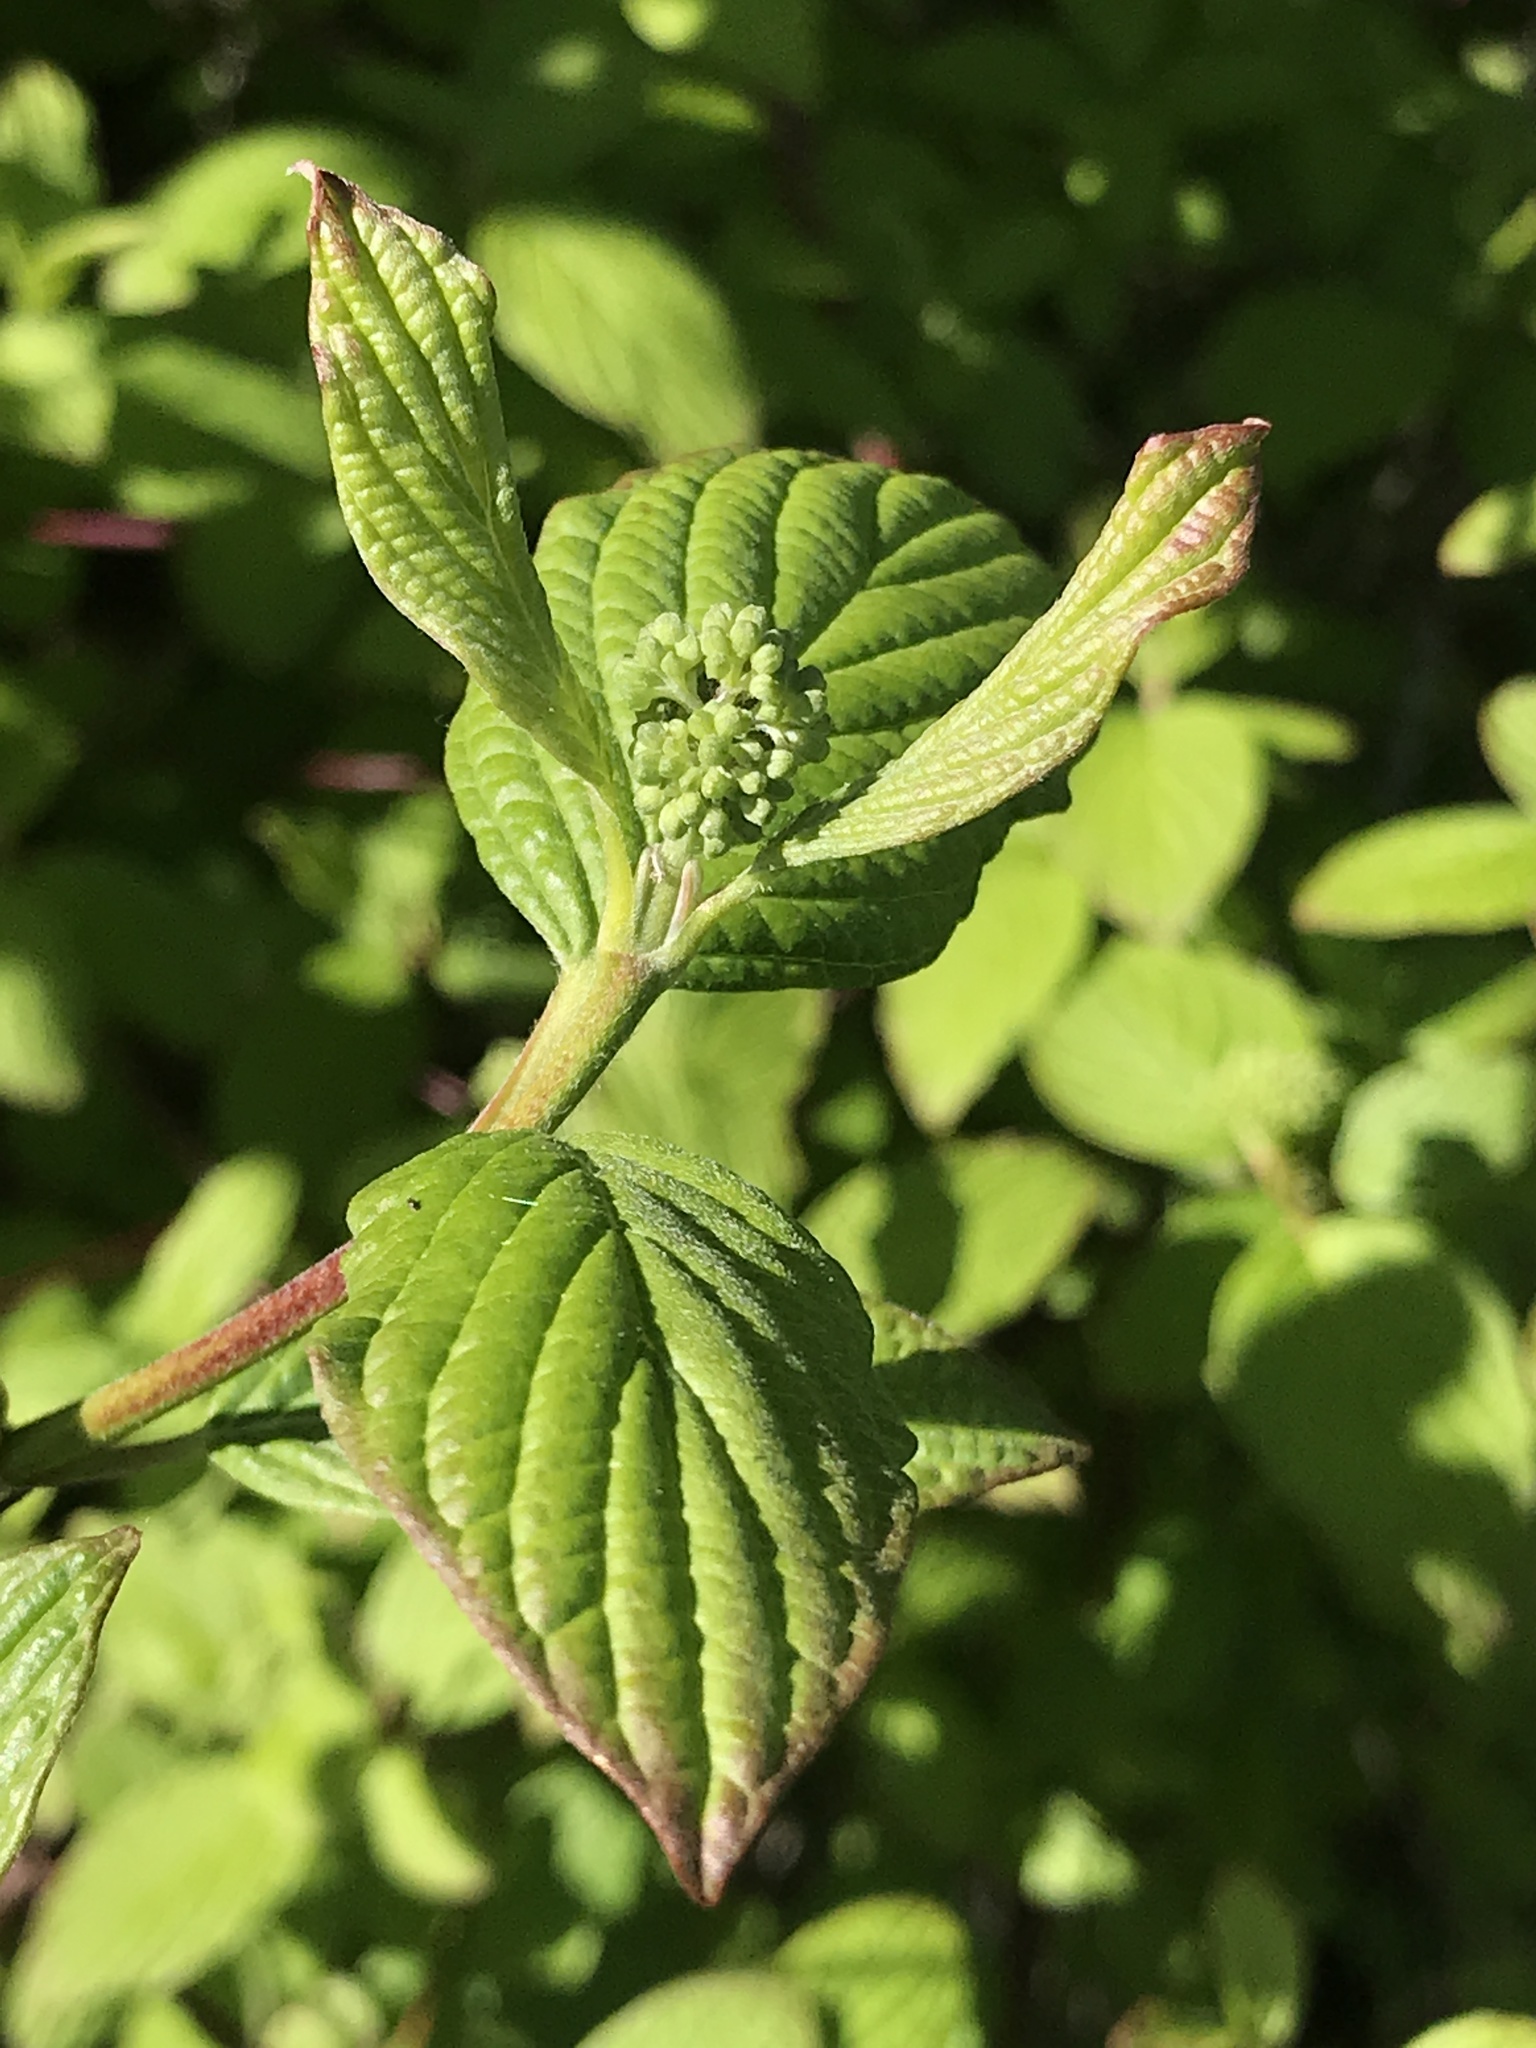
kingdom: Plantae
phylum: Tracheophyta
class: Magnoliopsida
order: Cornales
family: Cornaceae
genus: Cornus
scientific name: Cornus sericea
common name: Red-osier dogwood
